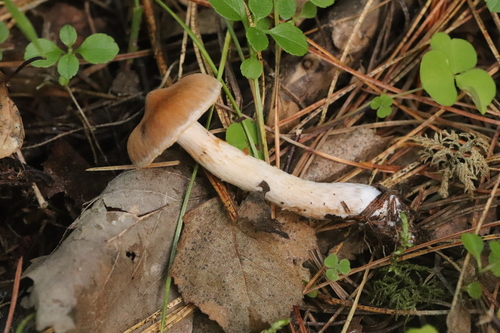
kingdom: Fungi
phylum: Basidiomycota
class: Agaricomycetes
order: Agaricales
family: Cortinariaceae
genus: Cortinarius
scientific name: Cortinarius
